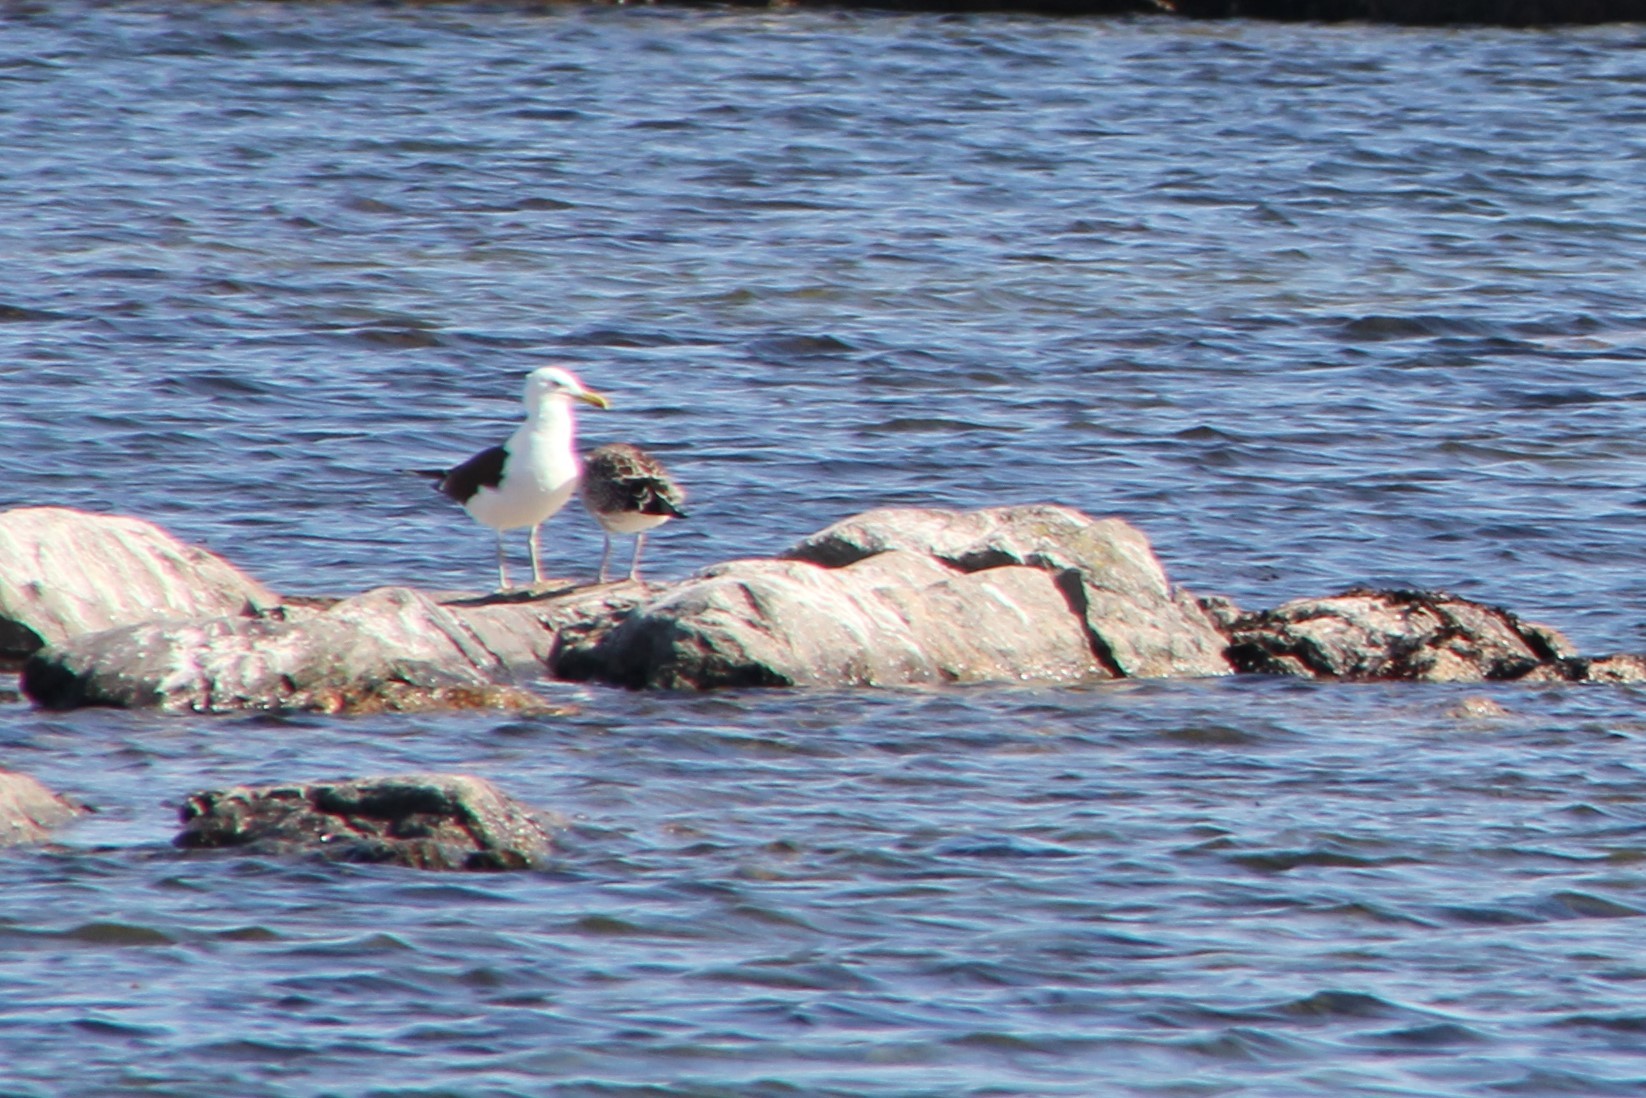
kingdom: Animalia
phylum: Chordata
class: Aves
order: Charadriiformes
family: Laridae
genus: Larus
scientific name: Larus marinus
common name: Great black-backed gull
